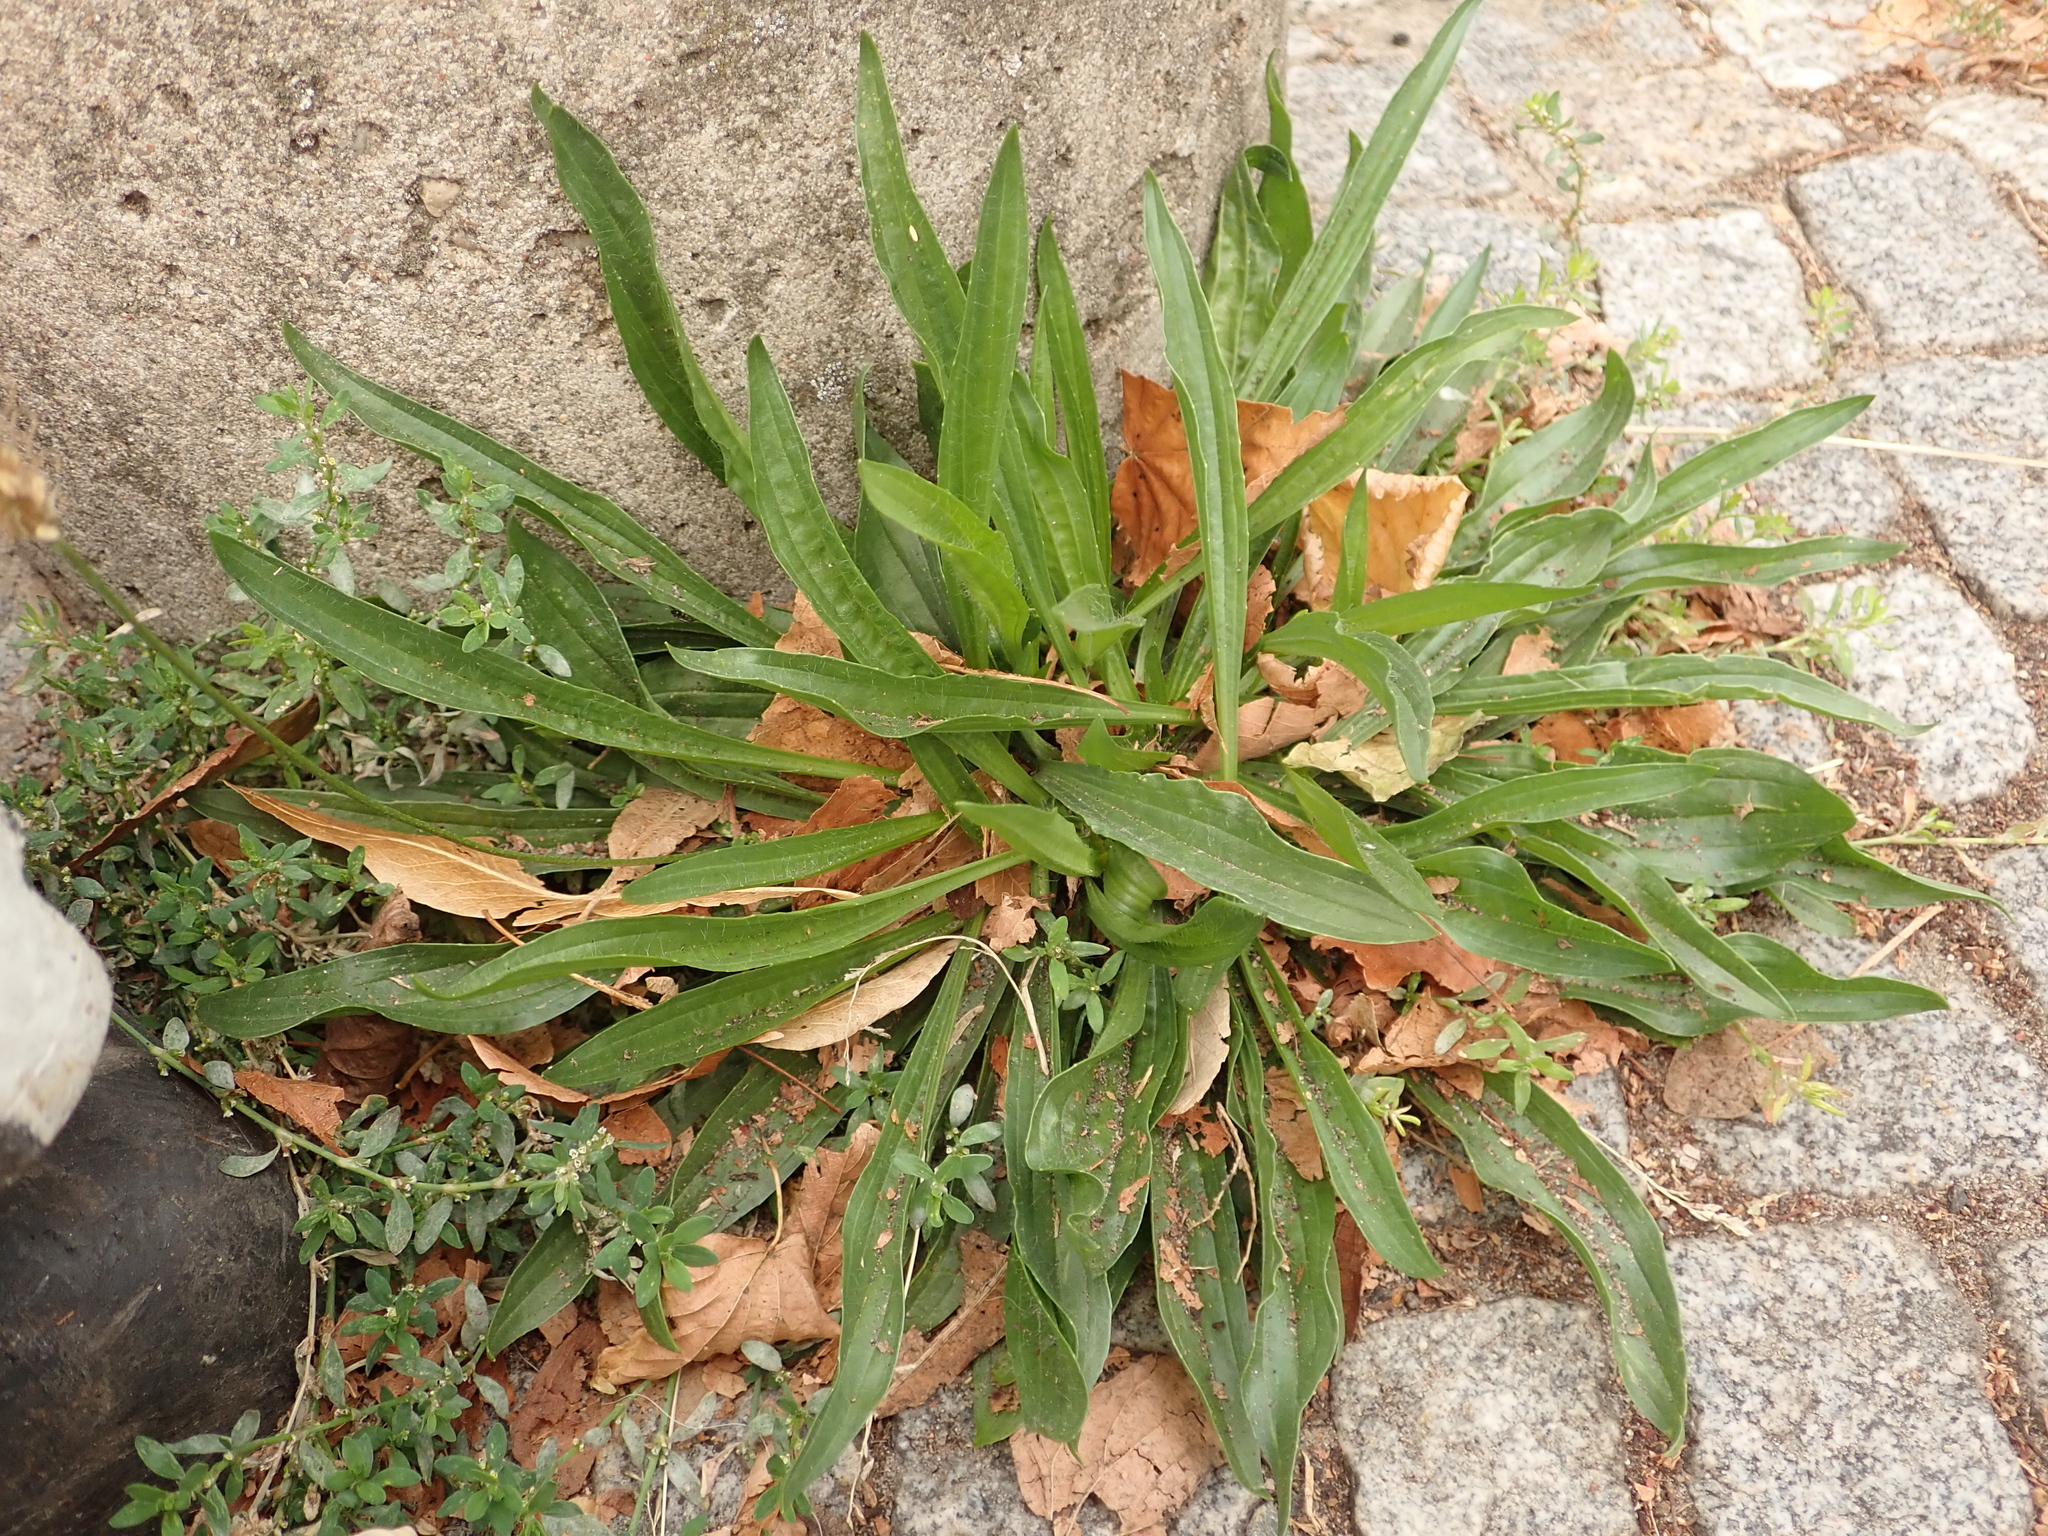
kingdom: Plantae
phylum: Tracheophyta
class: Magnoliopsida
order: Lamiales
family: Plantaginaceae
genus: Plantago
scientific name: Plantago lanceolata
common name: Ribwort plantain
